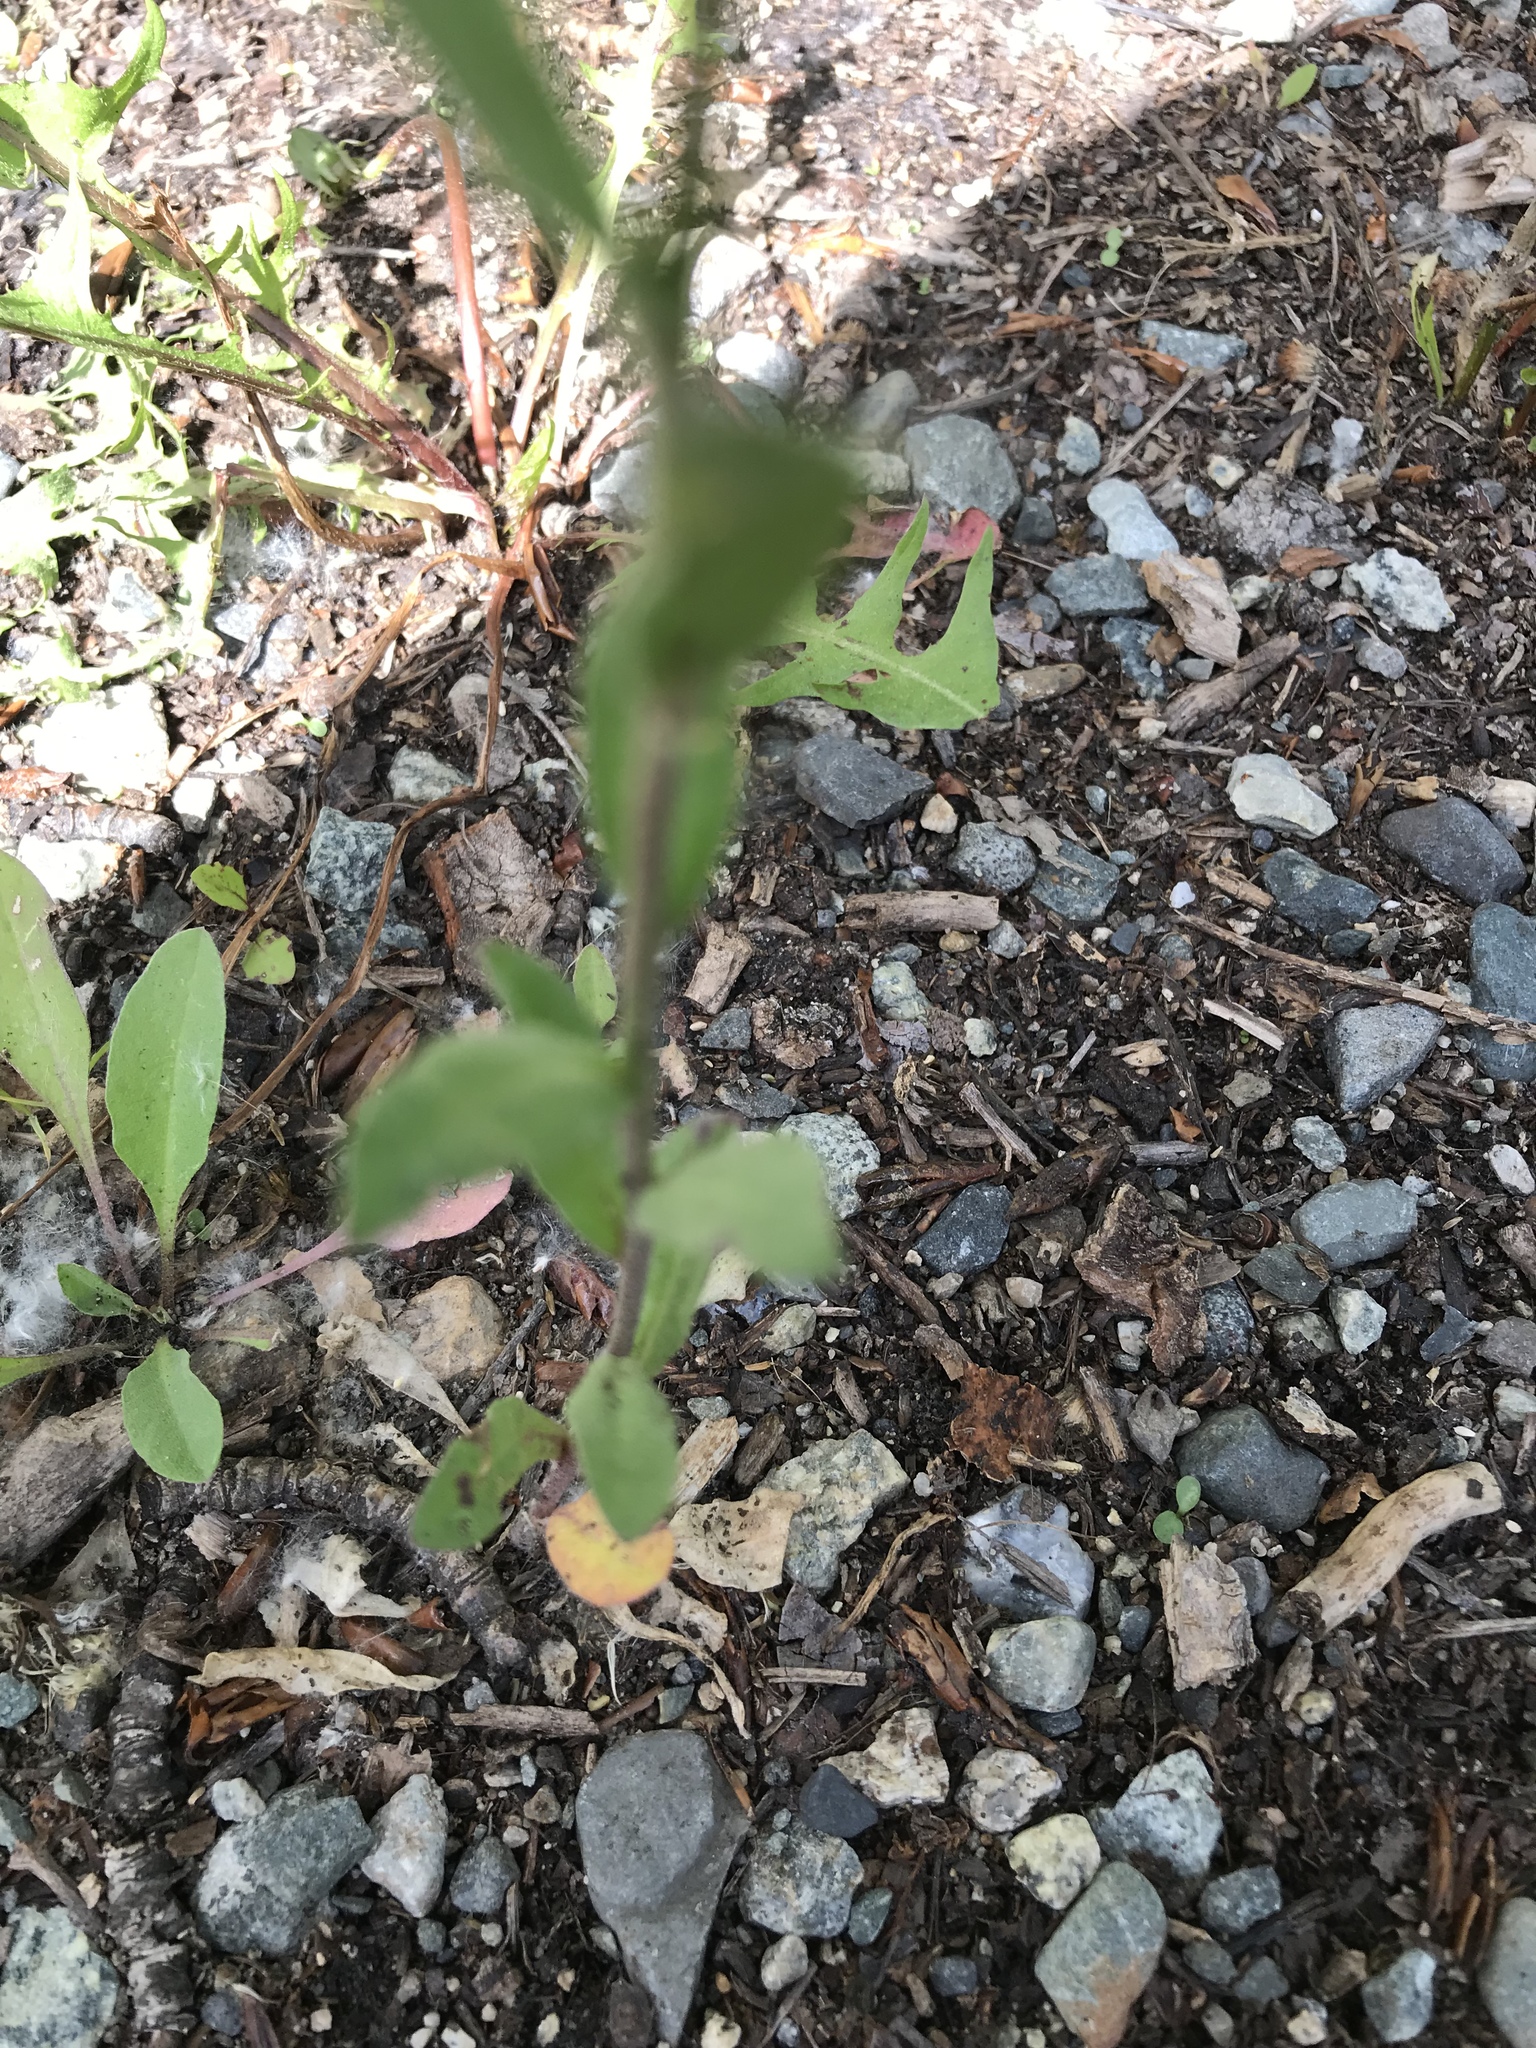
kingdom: Plantae
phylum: Tracheophyta
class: Magnoliopsida
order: Brassicales
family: Brassicaceae
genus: Berteroa
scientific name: Berteroa incana
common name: Hoary alison
